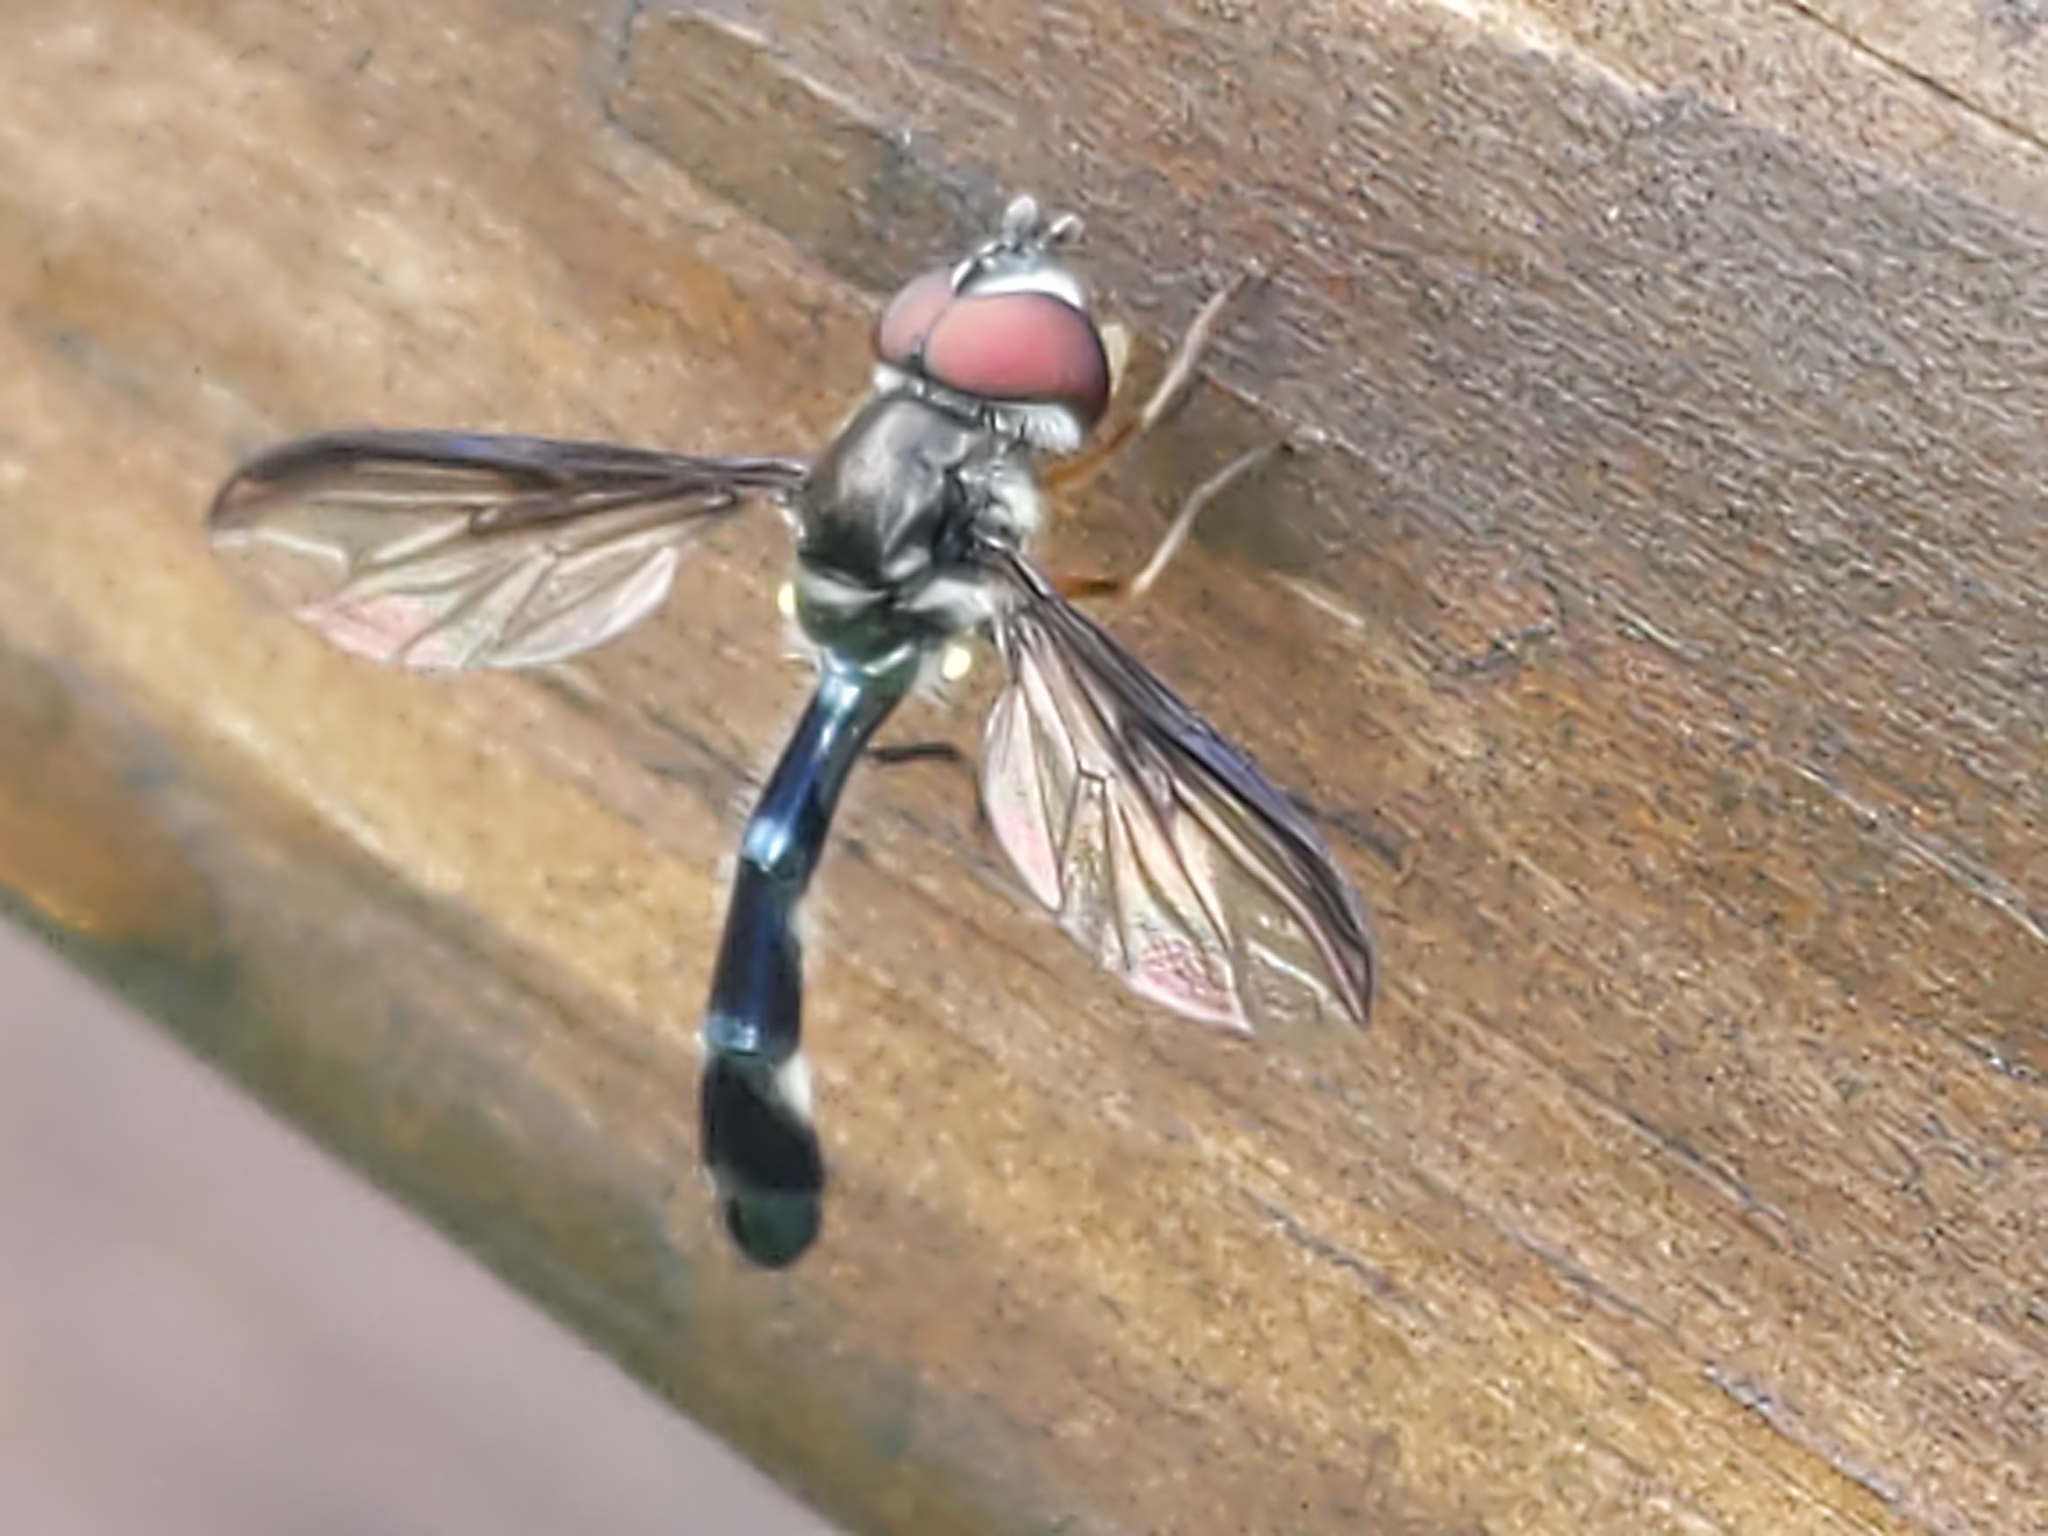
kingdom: Animalia
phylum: Arthropoda
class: Insecta
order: Diptera
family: Syrphidae
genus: Ocyptamus
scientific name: Ocyptamus costatus
